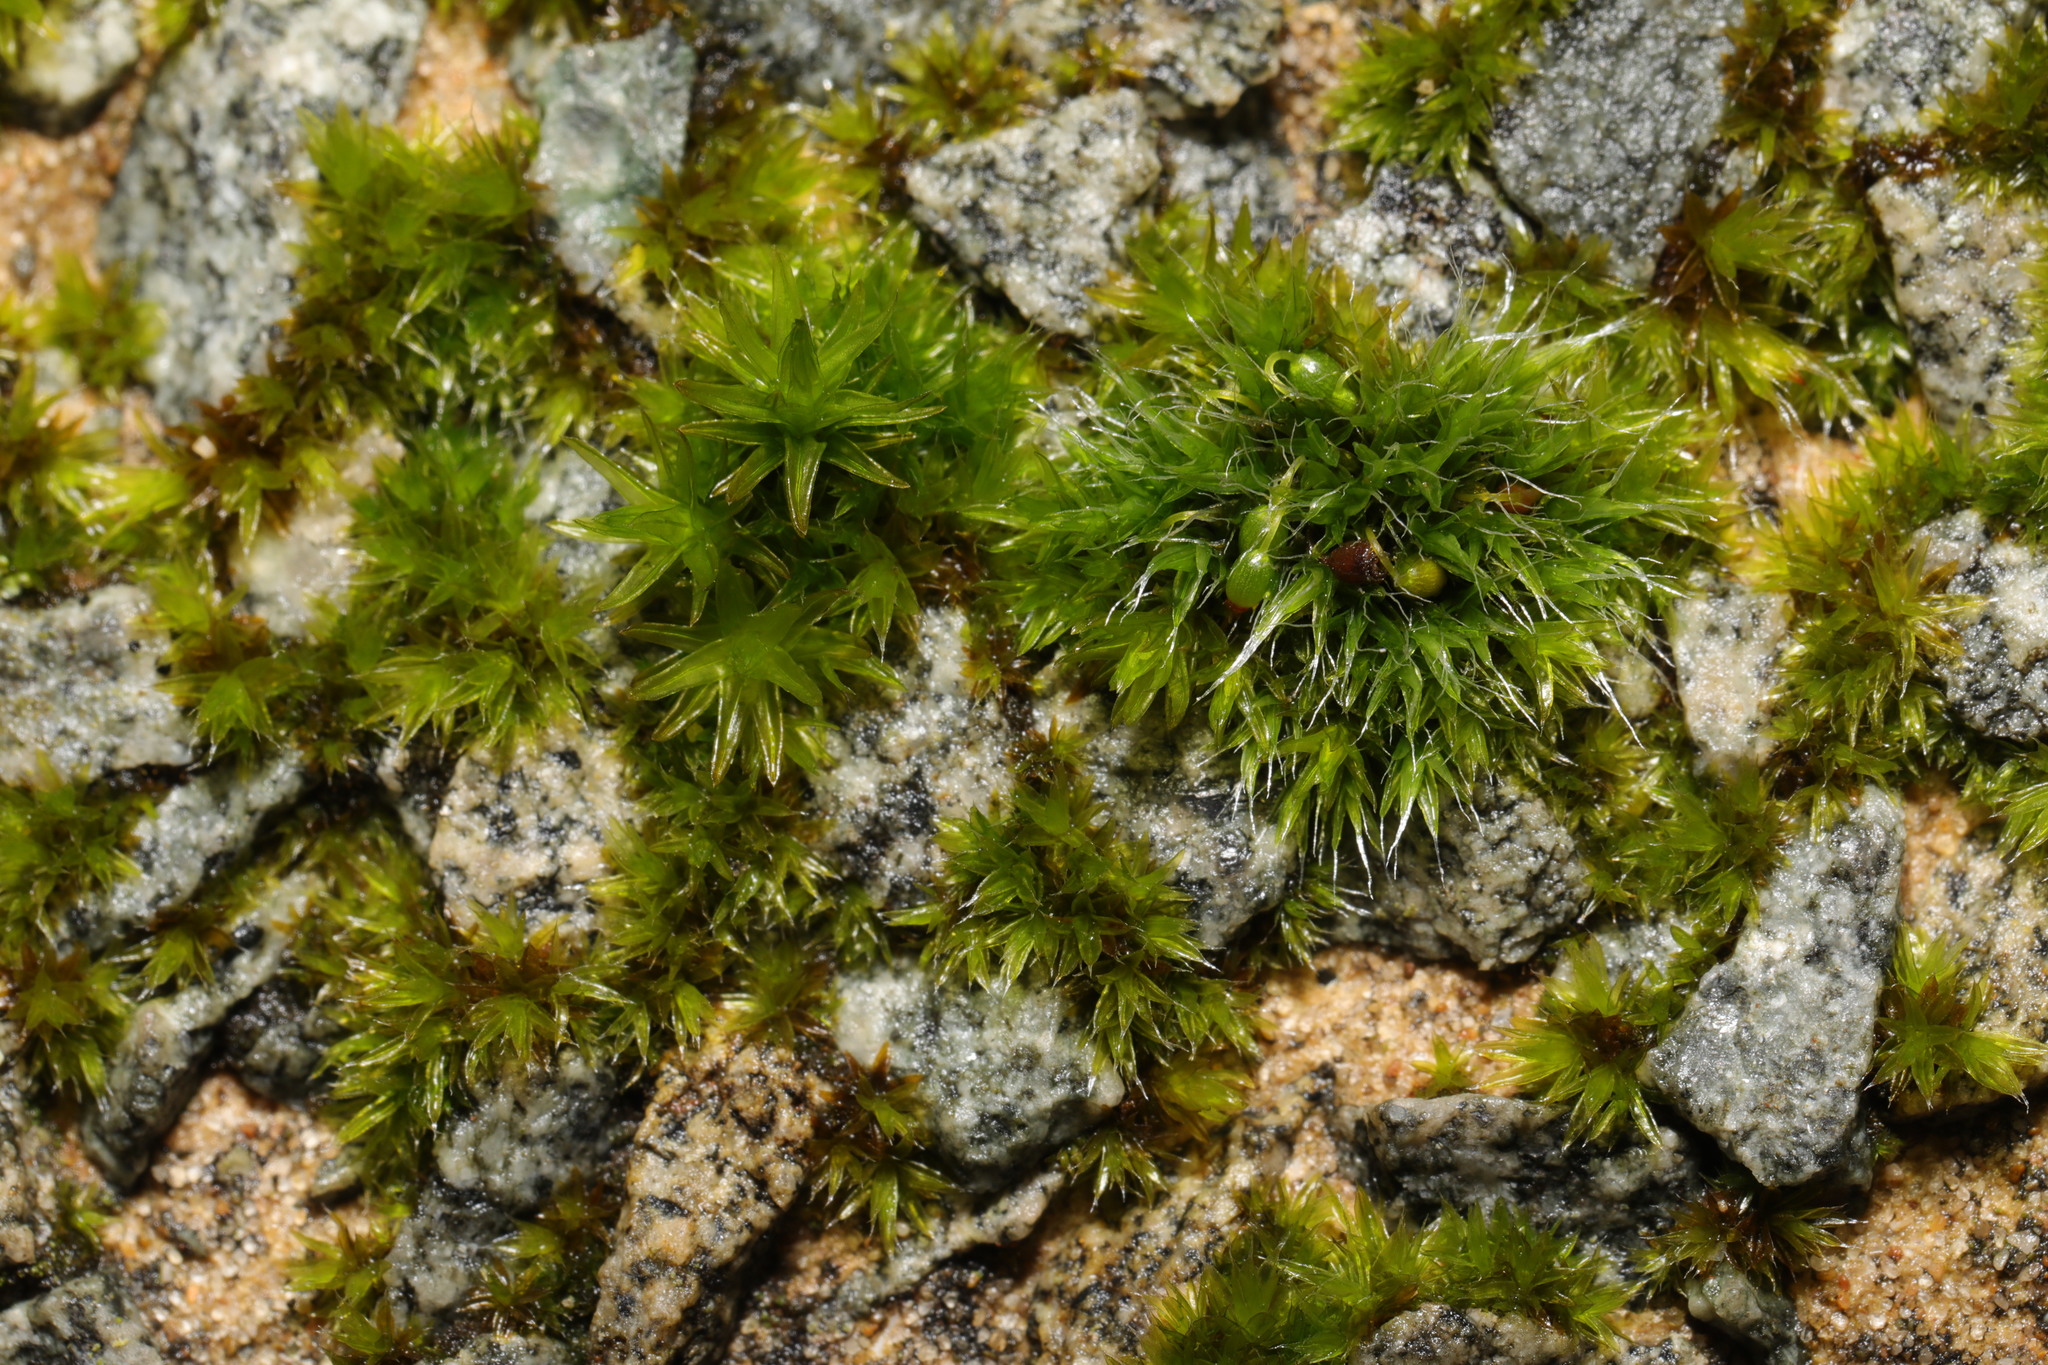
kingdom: Plantae
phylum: Bryophyta
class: Bryopsida
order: Grimmiales
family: Grimmiaceae
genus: Grimmia
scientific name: Grimmia pulvinata
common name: Grey-cushioned grimmia
